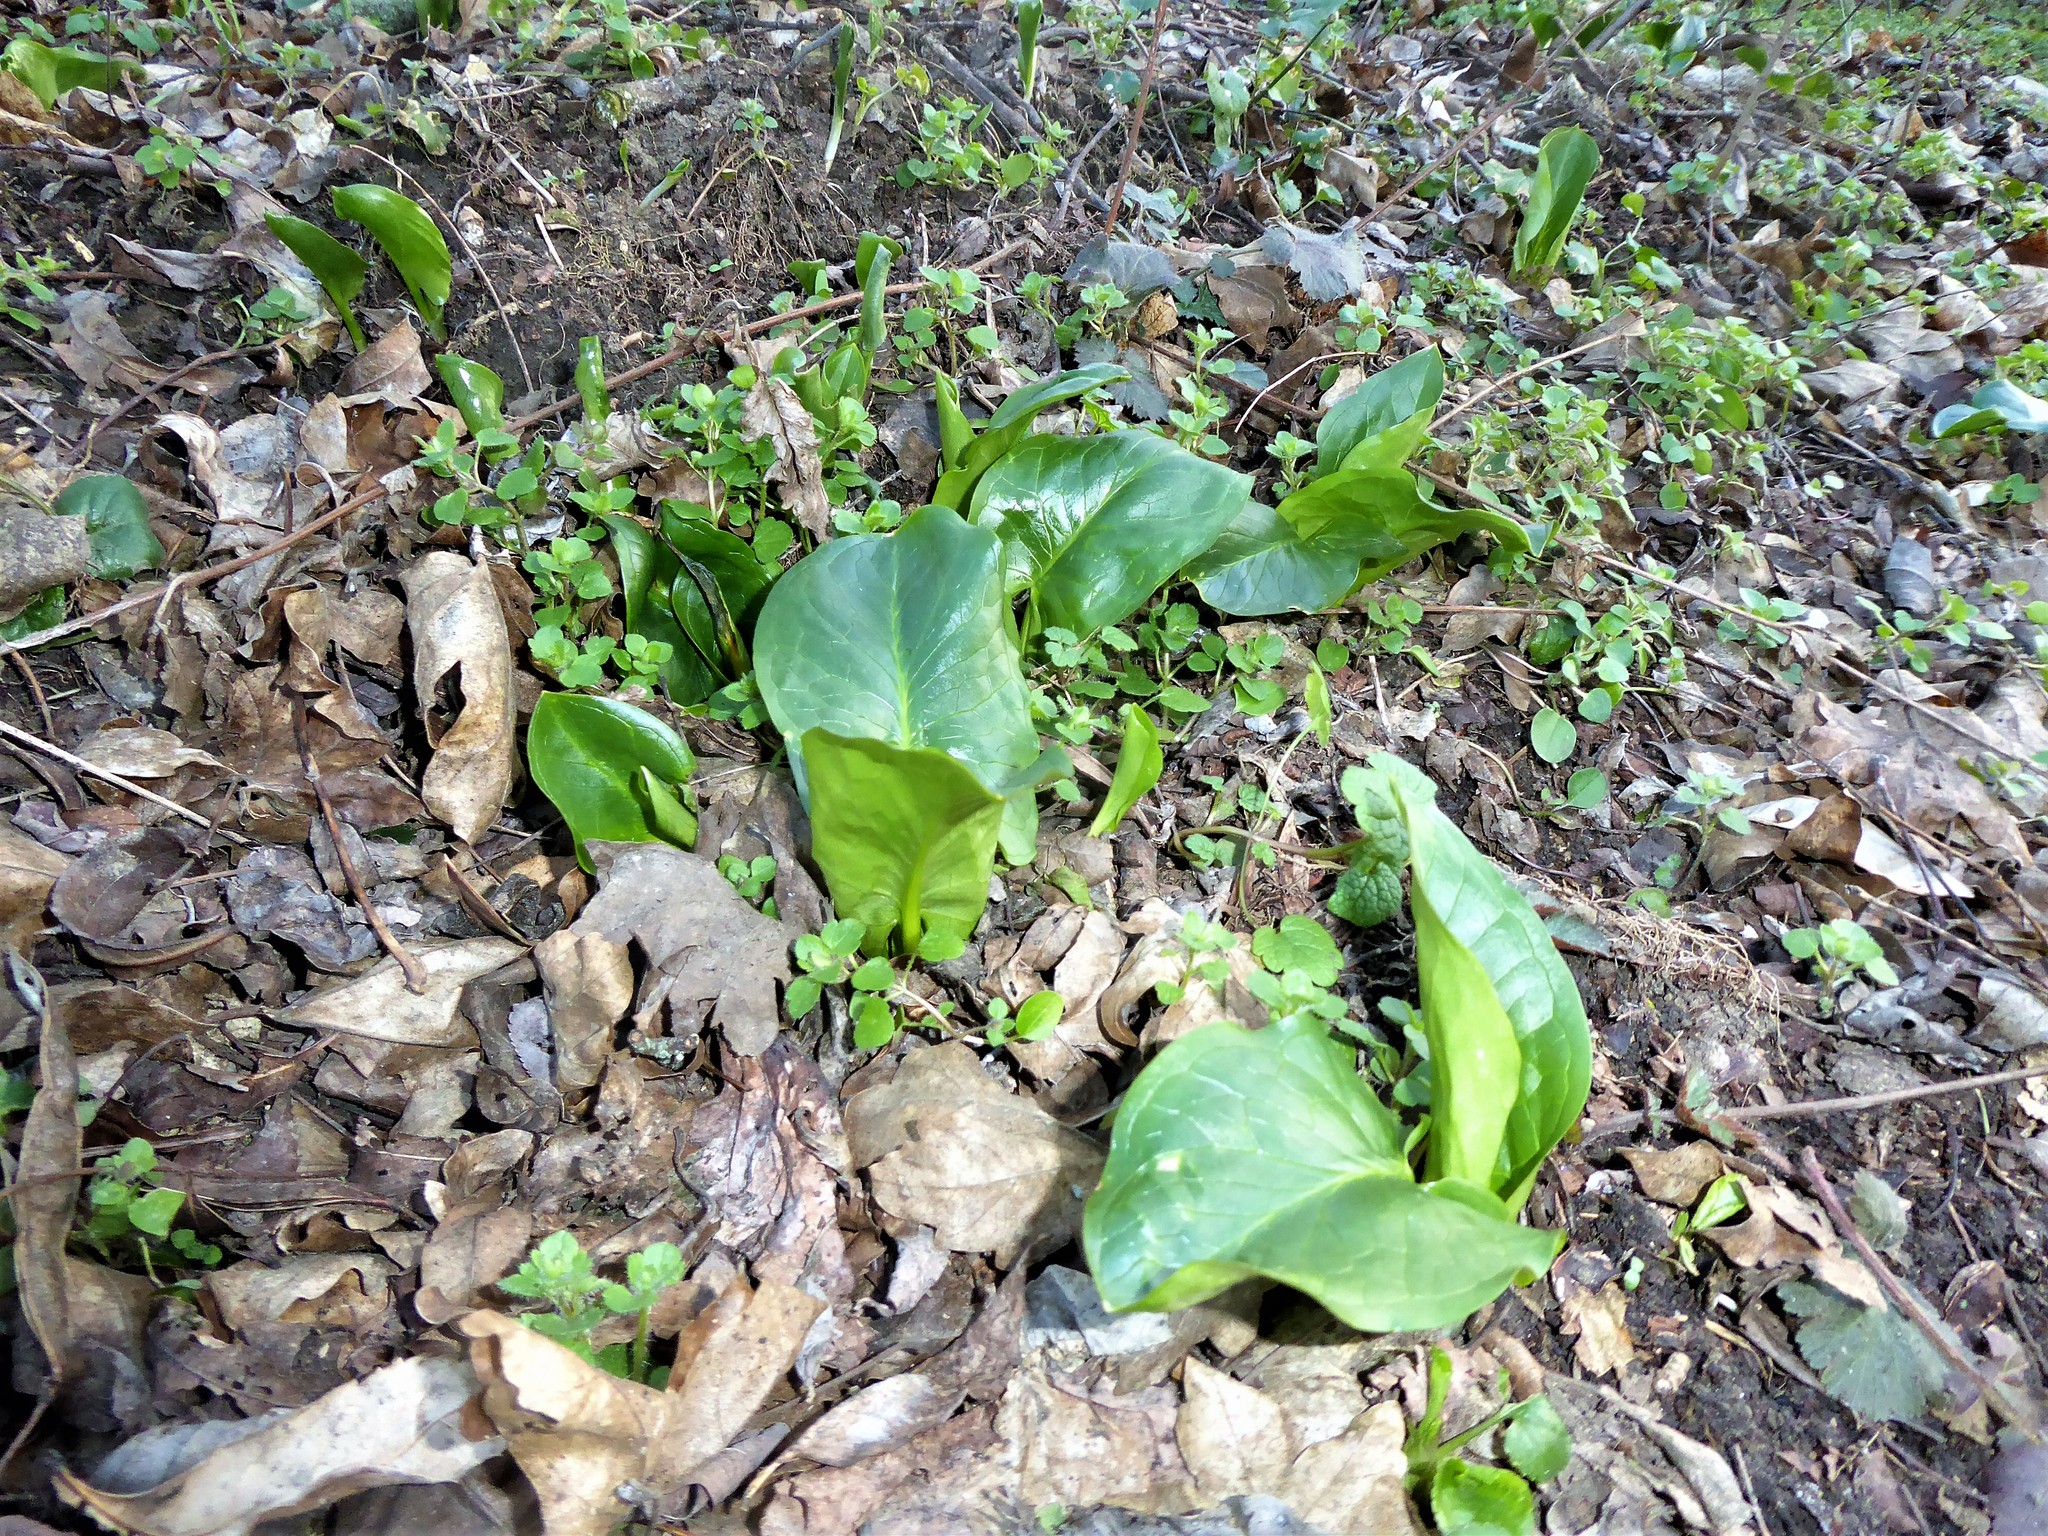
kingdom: Plantae
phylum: Tracheophyta
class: Liliopsida
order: Alismatales
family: Araceae
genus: Arum
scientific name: Arum cylindraceum
